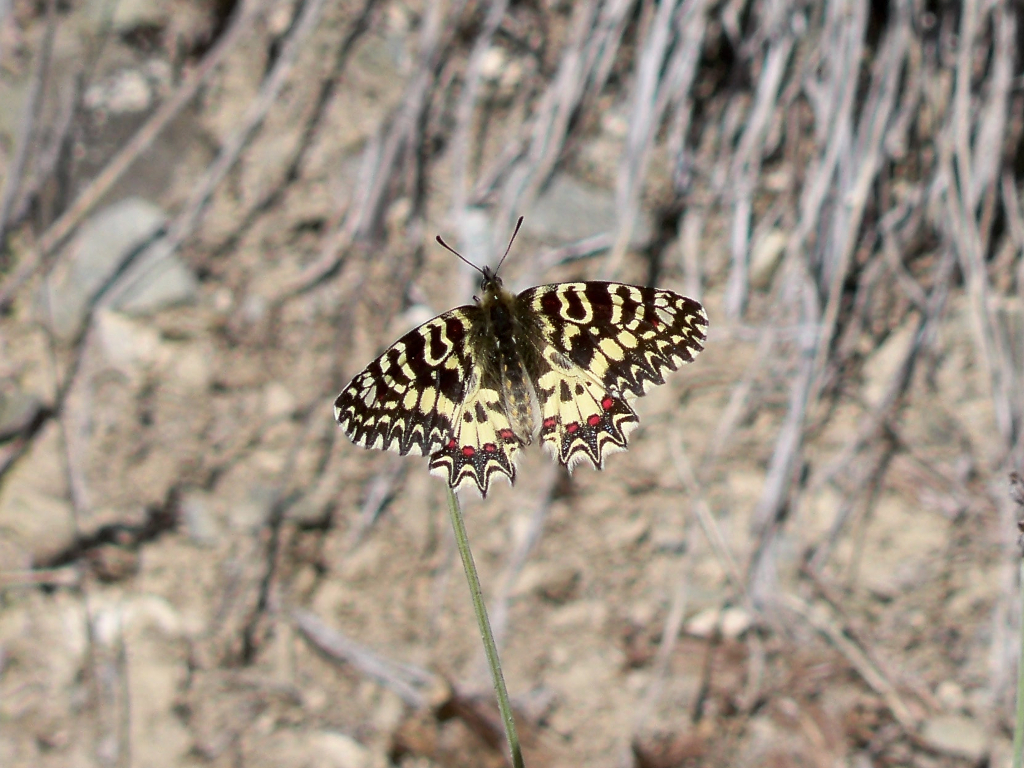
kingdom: Animalia
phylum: Arthropoda
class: Insecta
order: Lepidoptera
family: Papilionidae
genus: Zerynthia
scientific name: Zerynthia rumina
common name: Spanish festoon
